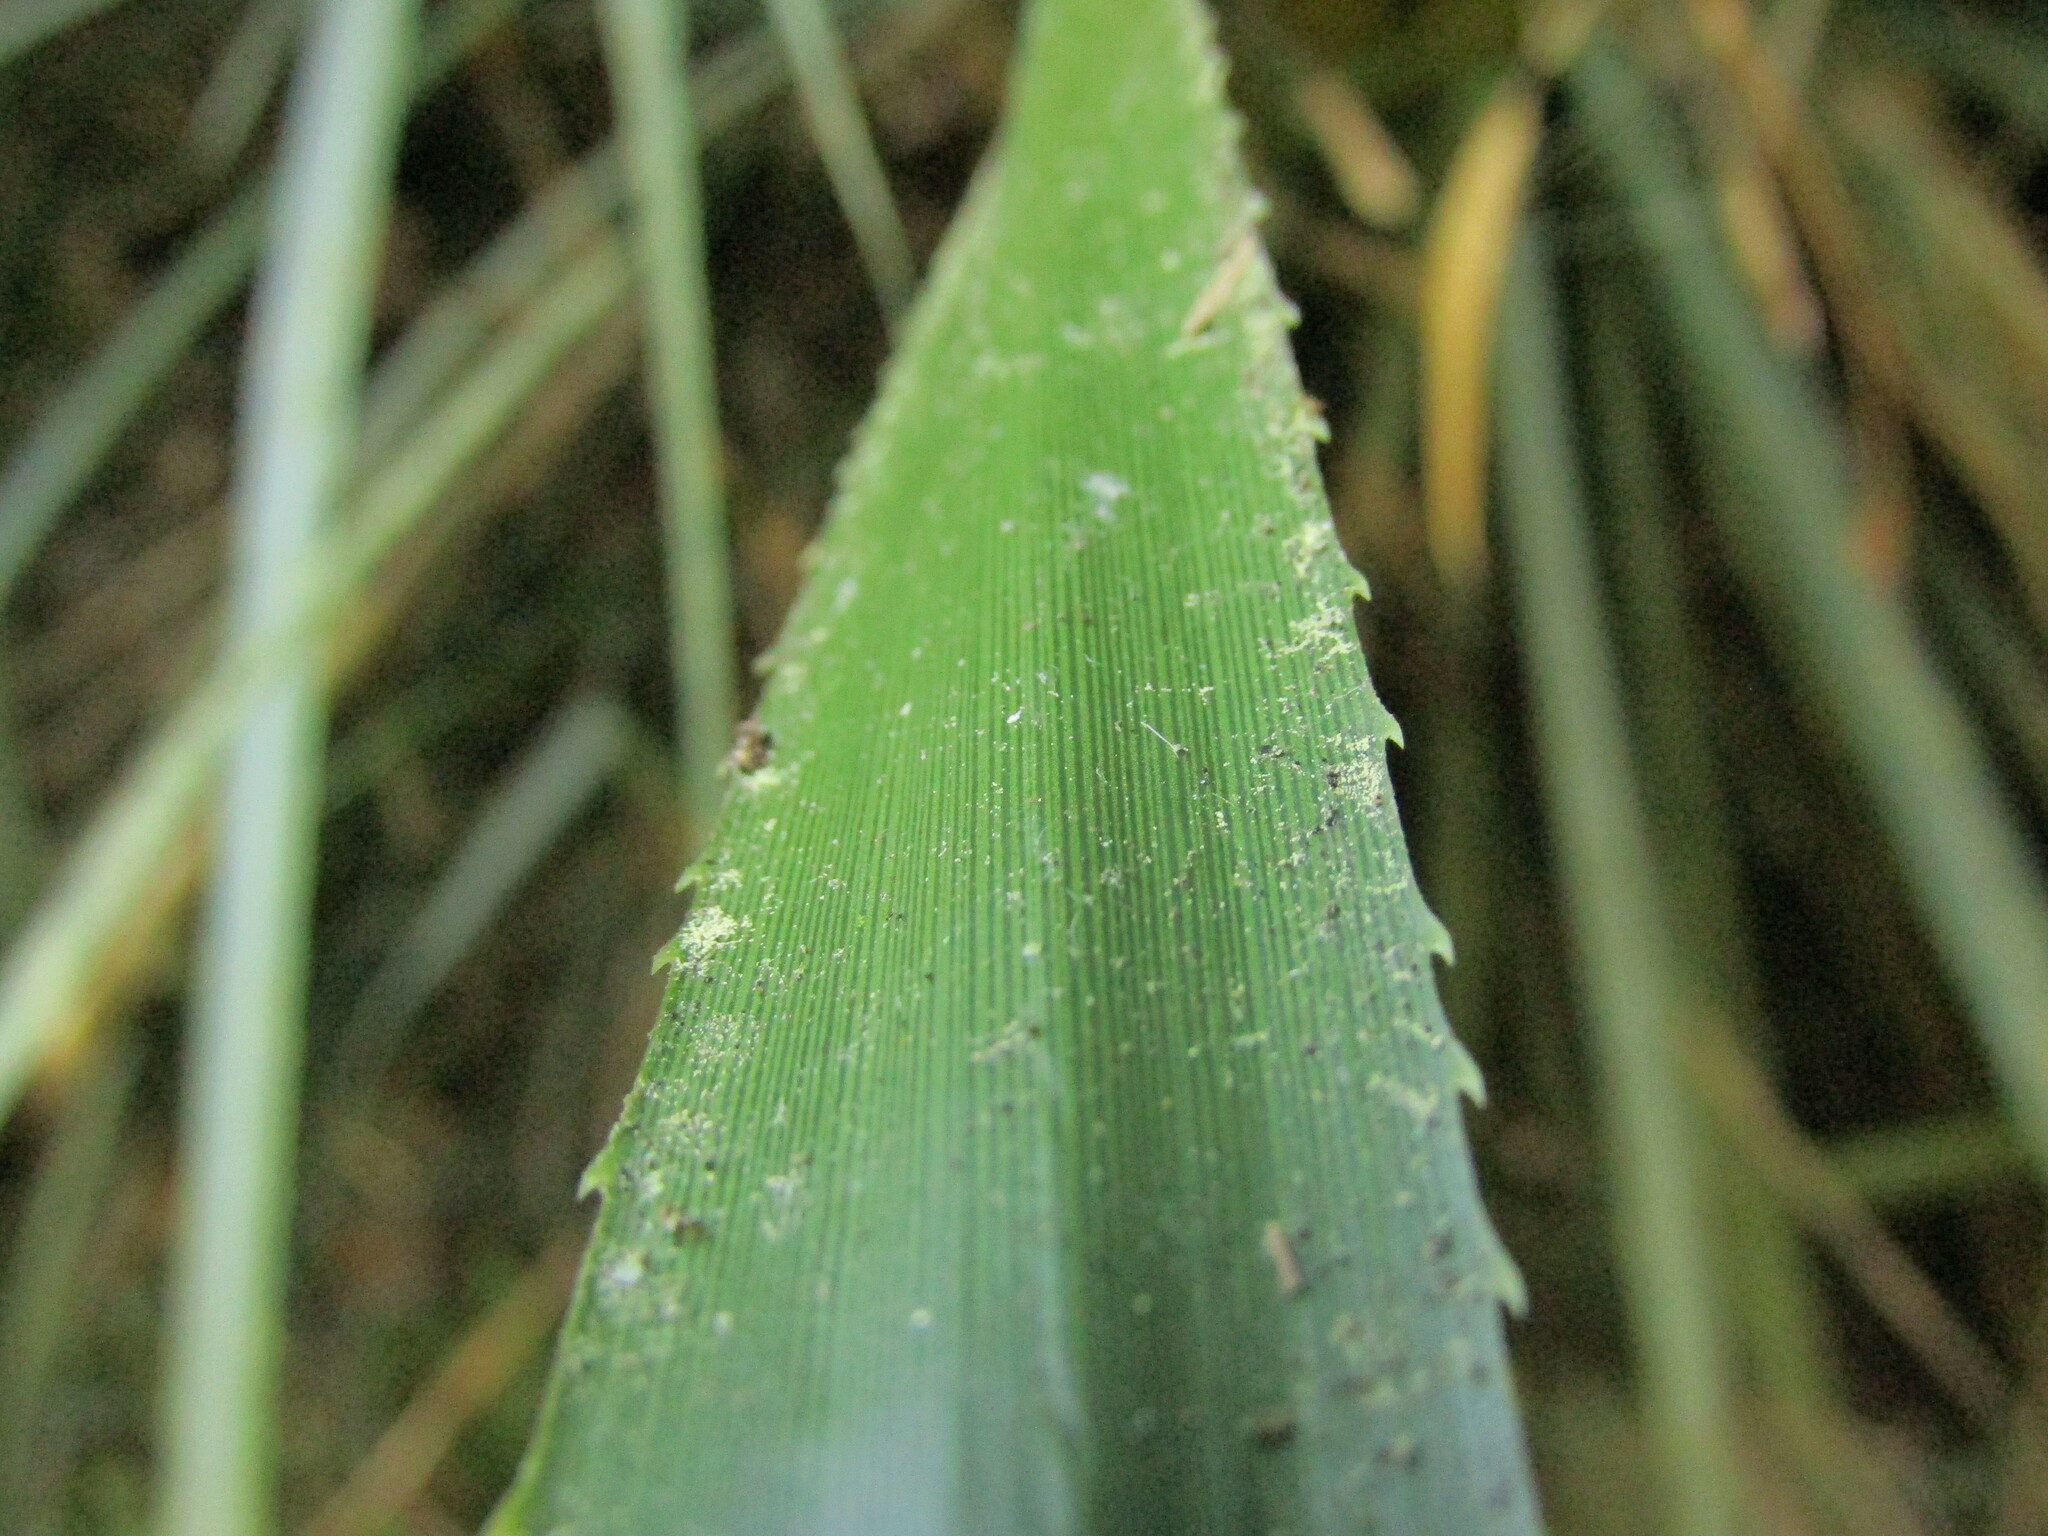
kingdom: Plantae
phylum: Tracheophyta
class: Liliopsida
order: Poales
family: Bromeliaceae
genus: Ochagavia
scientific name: Ochagavia carnea
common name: Tresco rhodostachys
